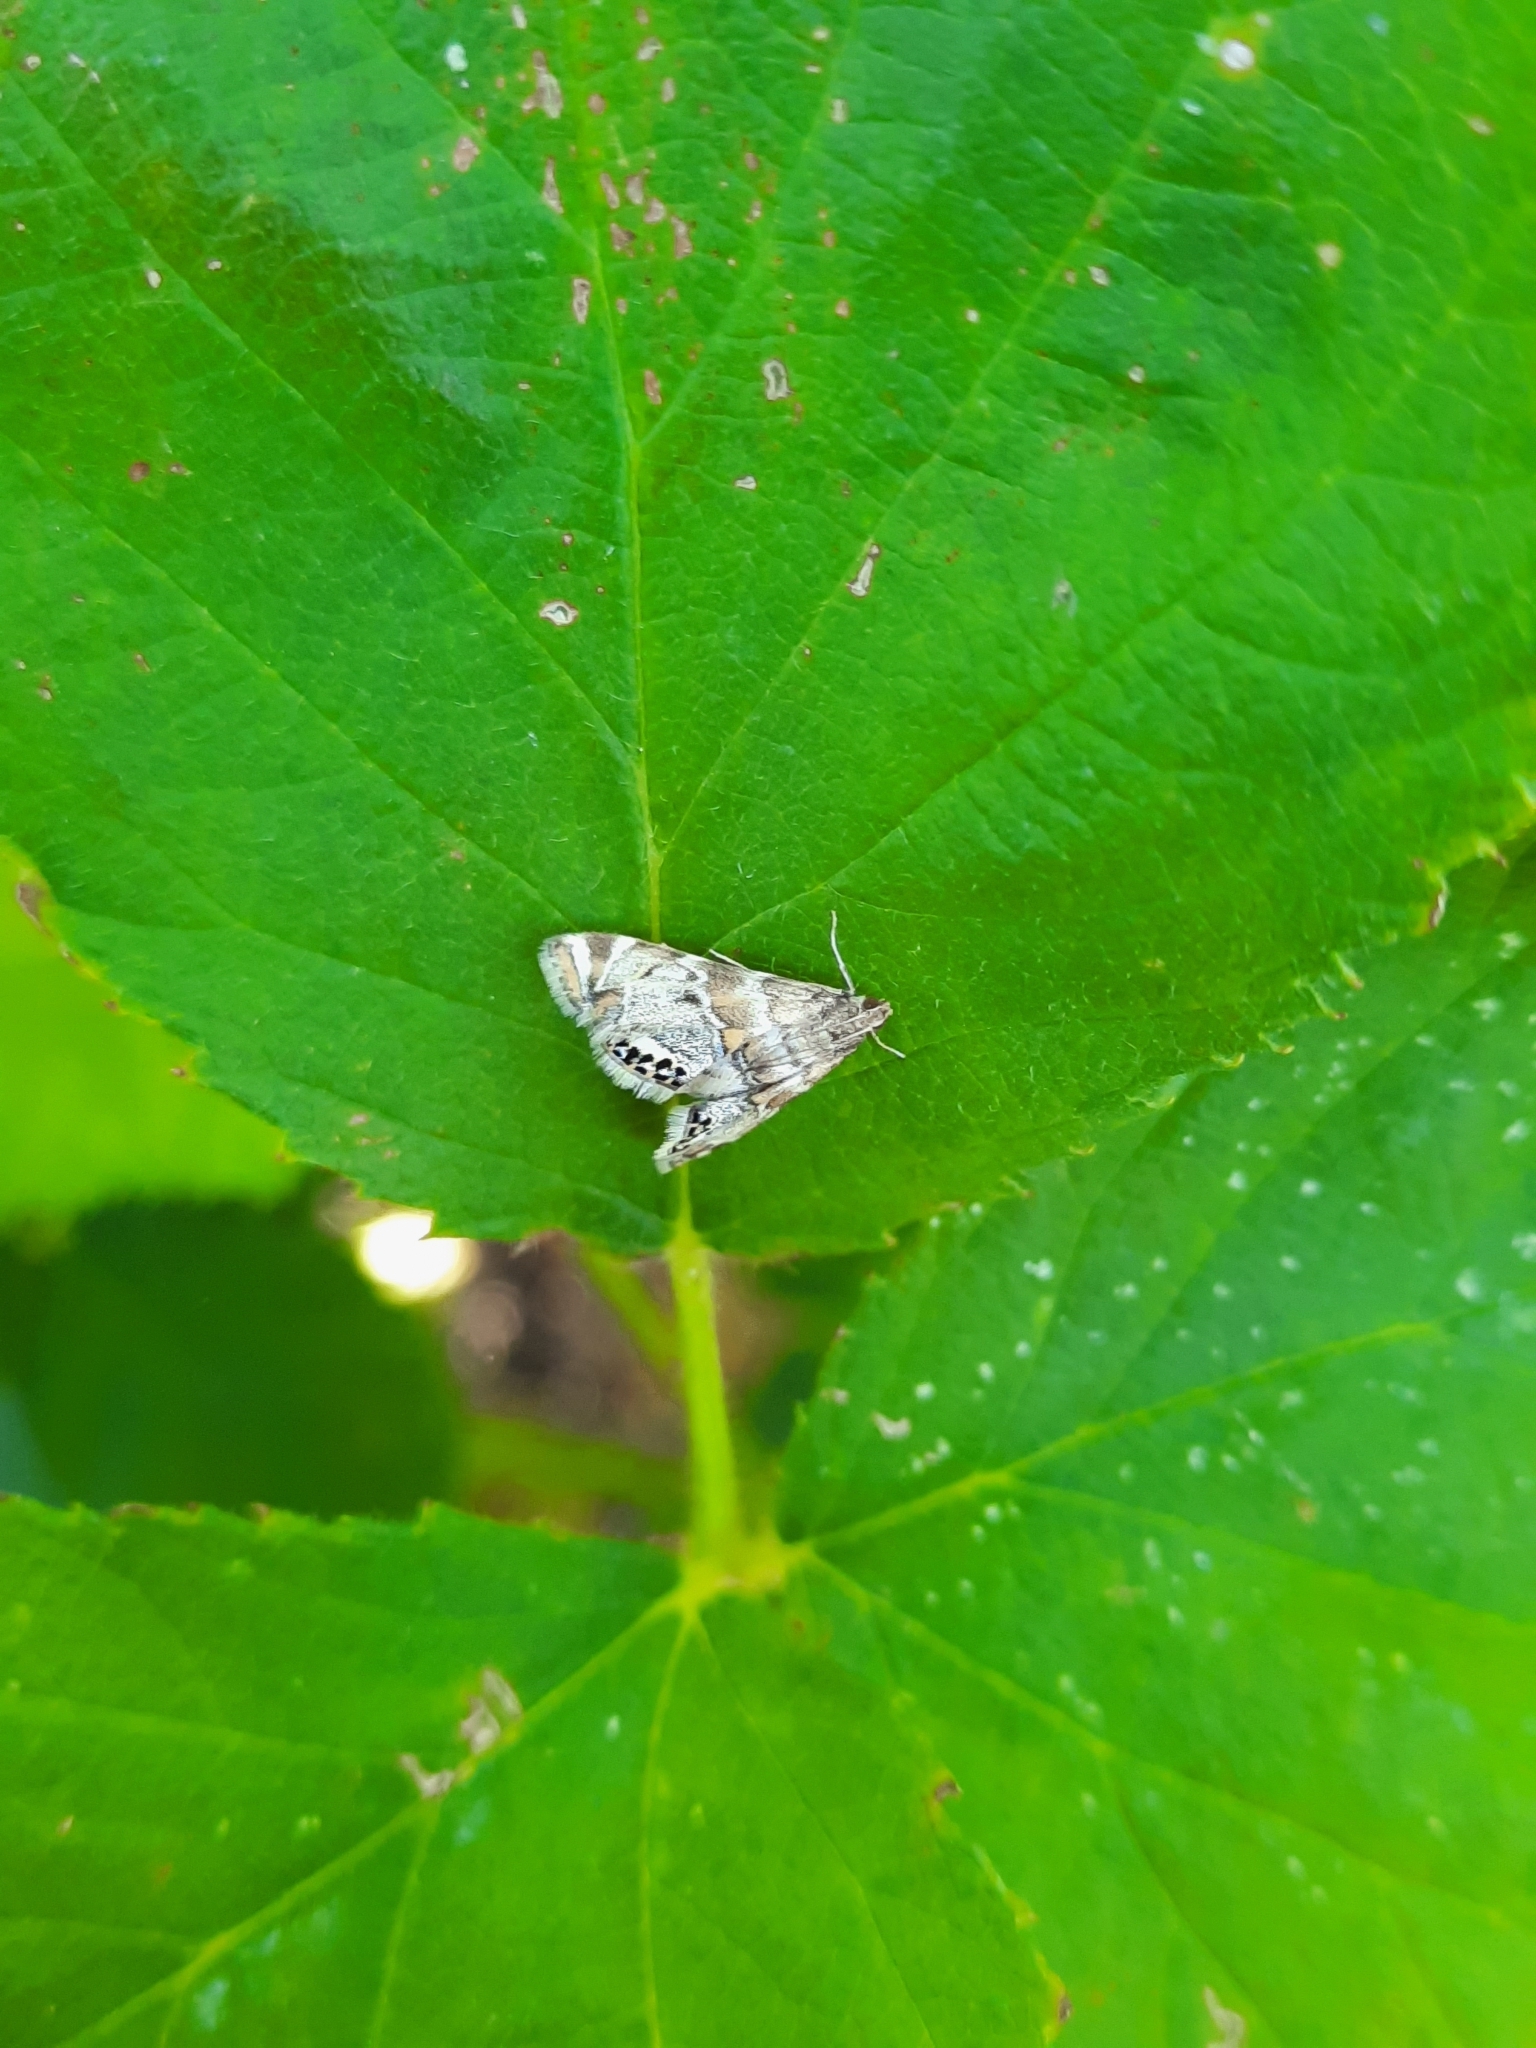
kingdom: Animalia
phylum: Arthropoda
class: Insecta
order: Lepidoptera
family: Crambidae
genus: Petrophila
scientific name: Petrophila confusalis
